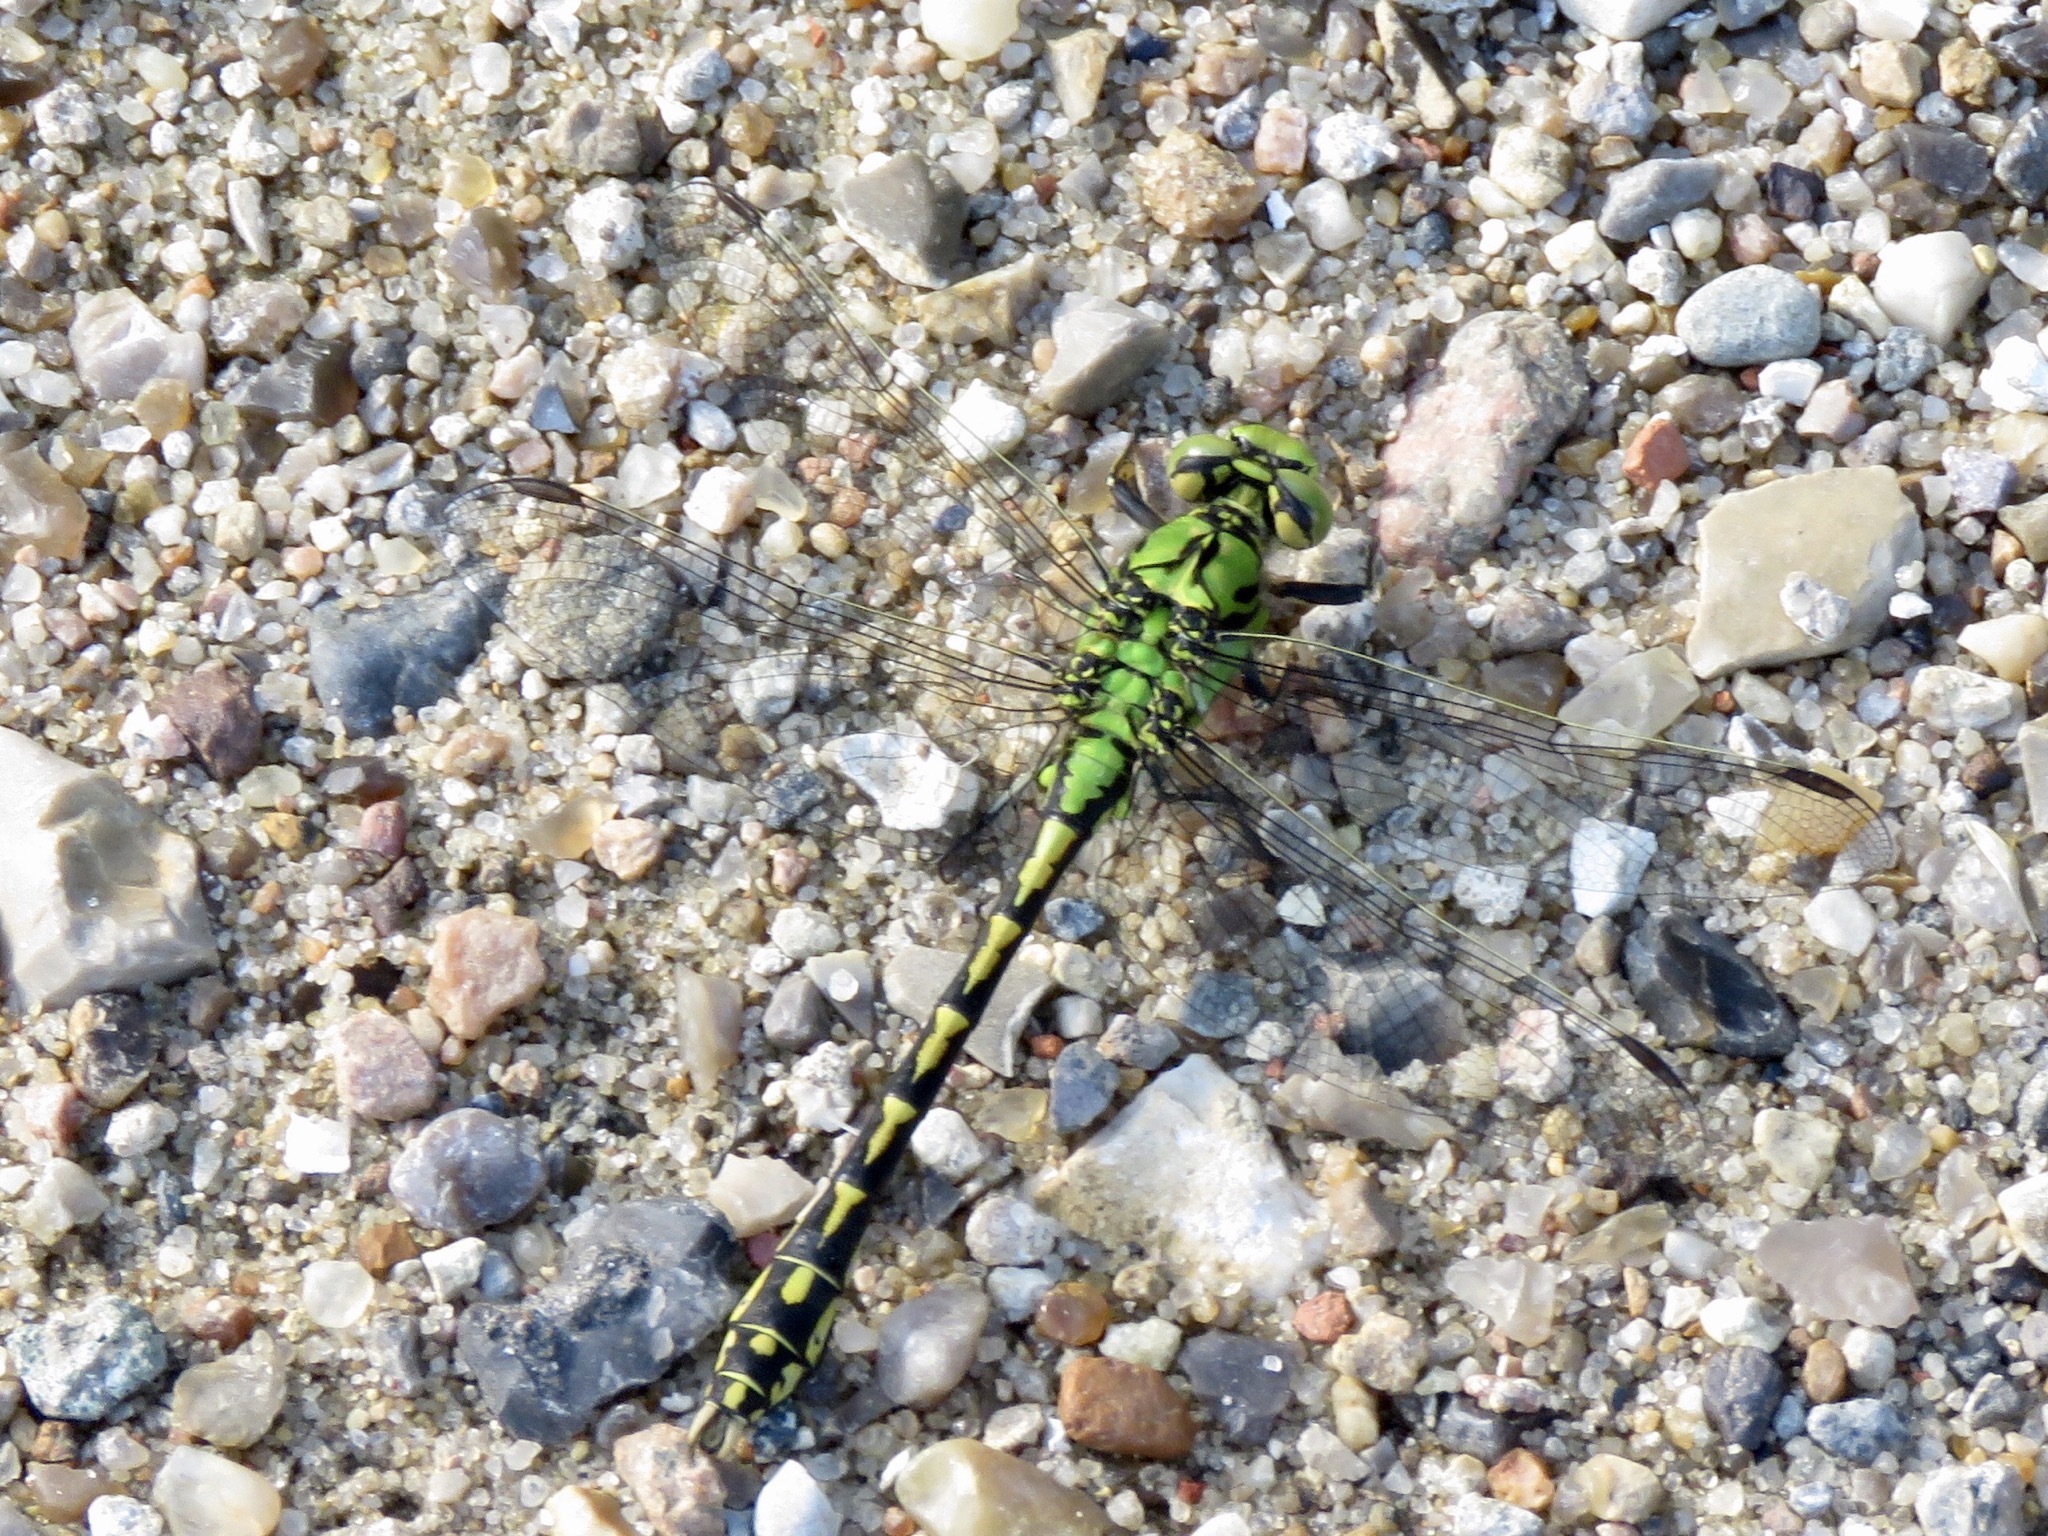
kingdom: Animalia
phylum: Arthropoda
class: Insecta
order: Odonata
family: Gomphidae
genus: Ophiogomphus
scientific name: Ophiogomphus cecilia
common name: Green snaketail
